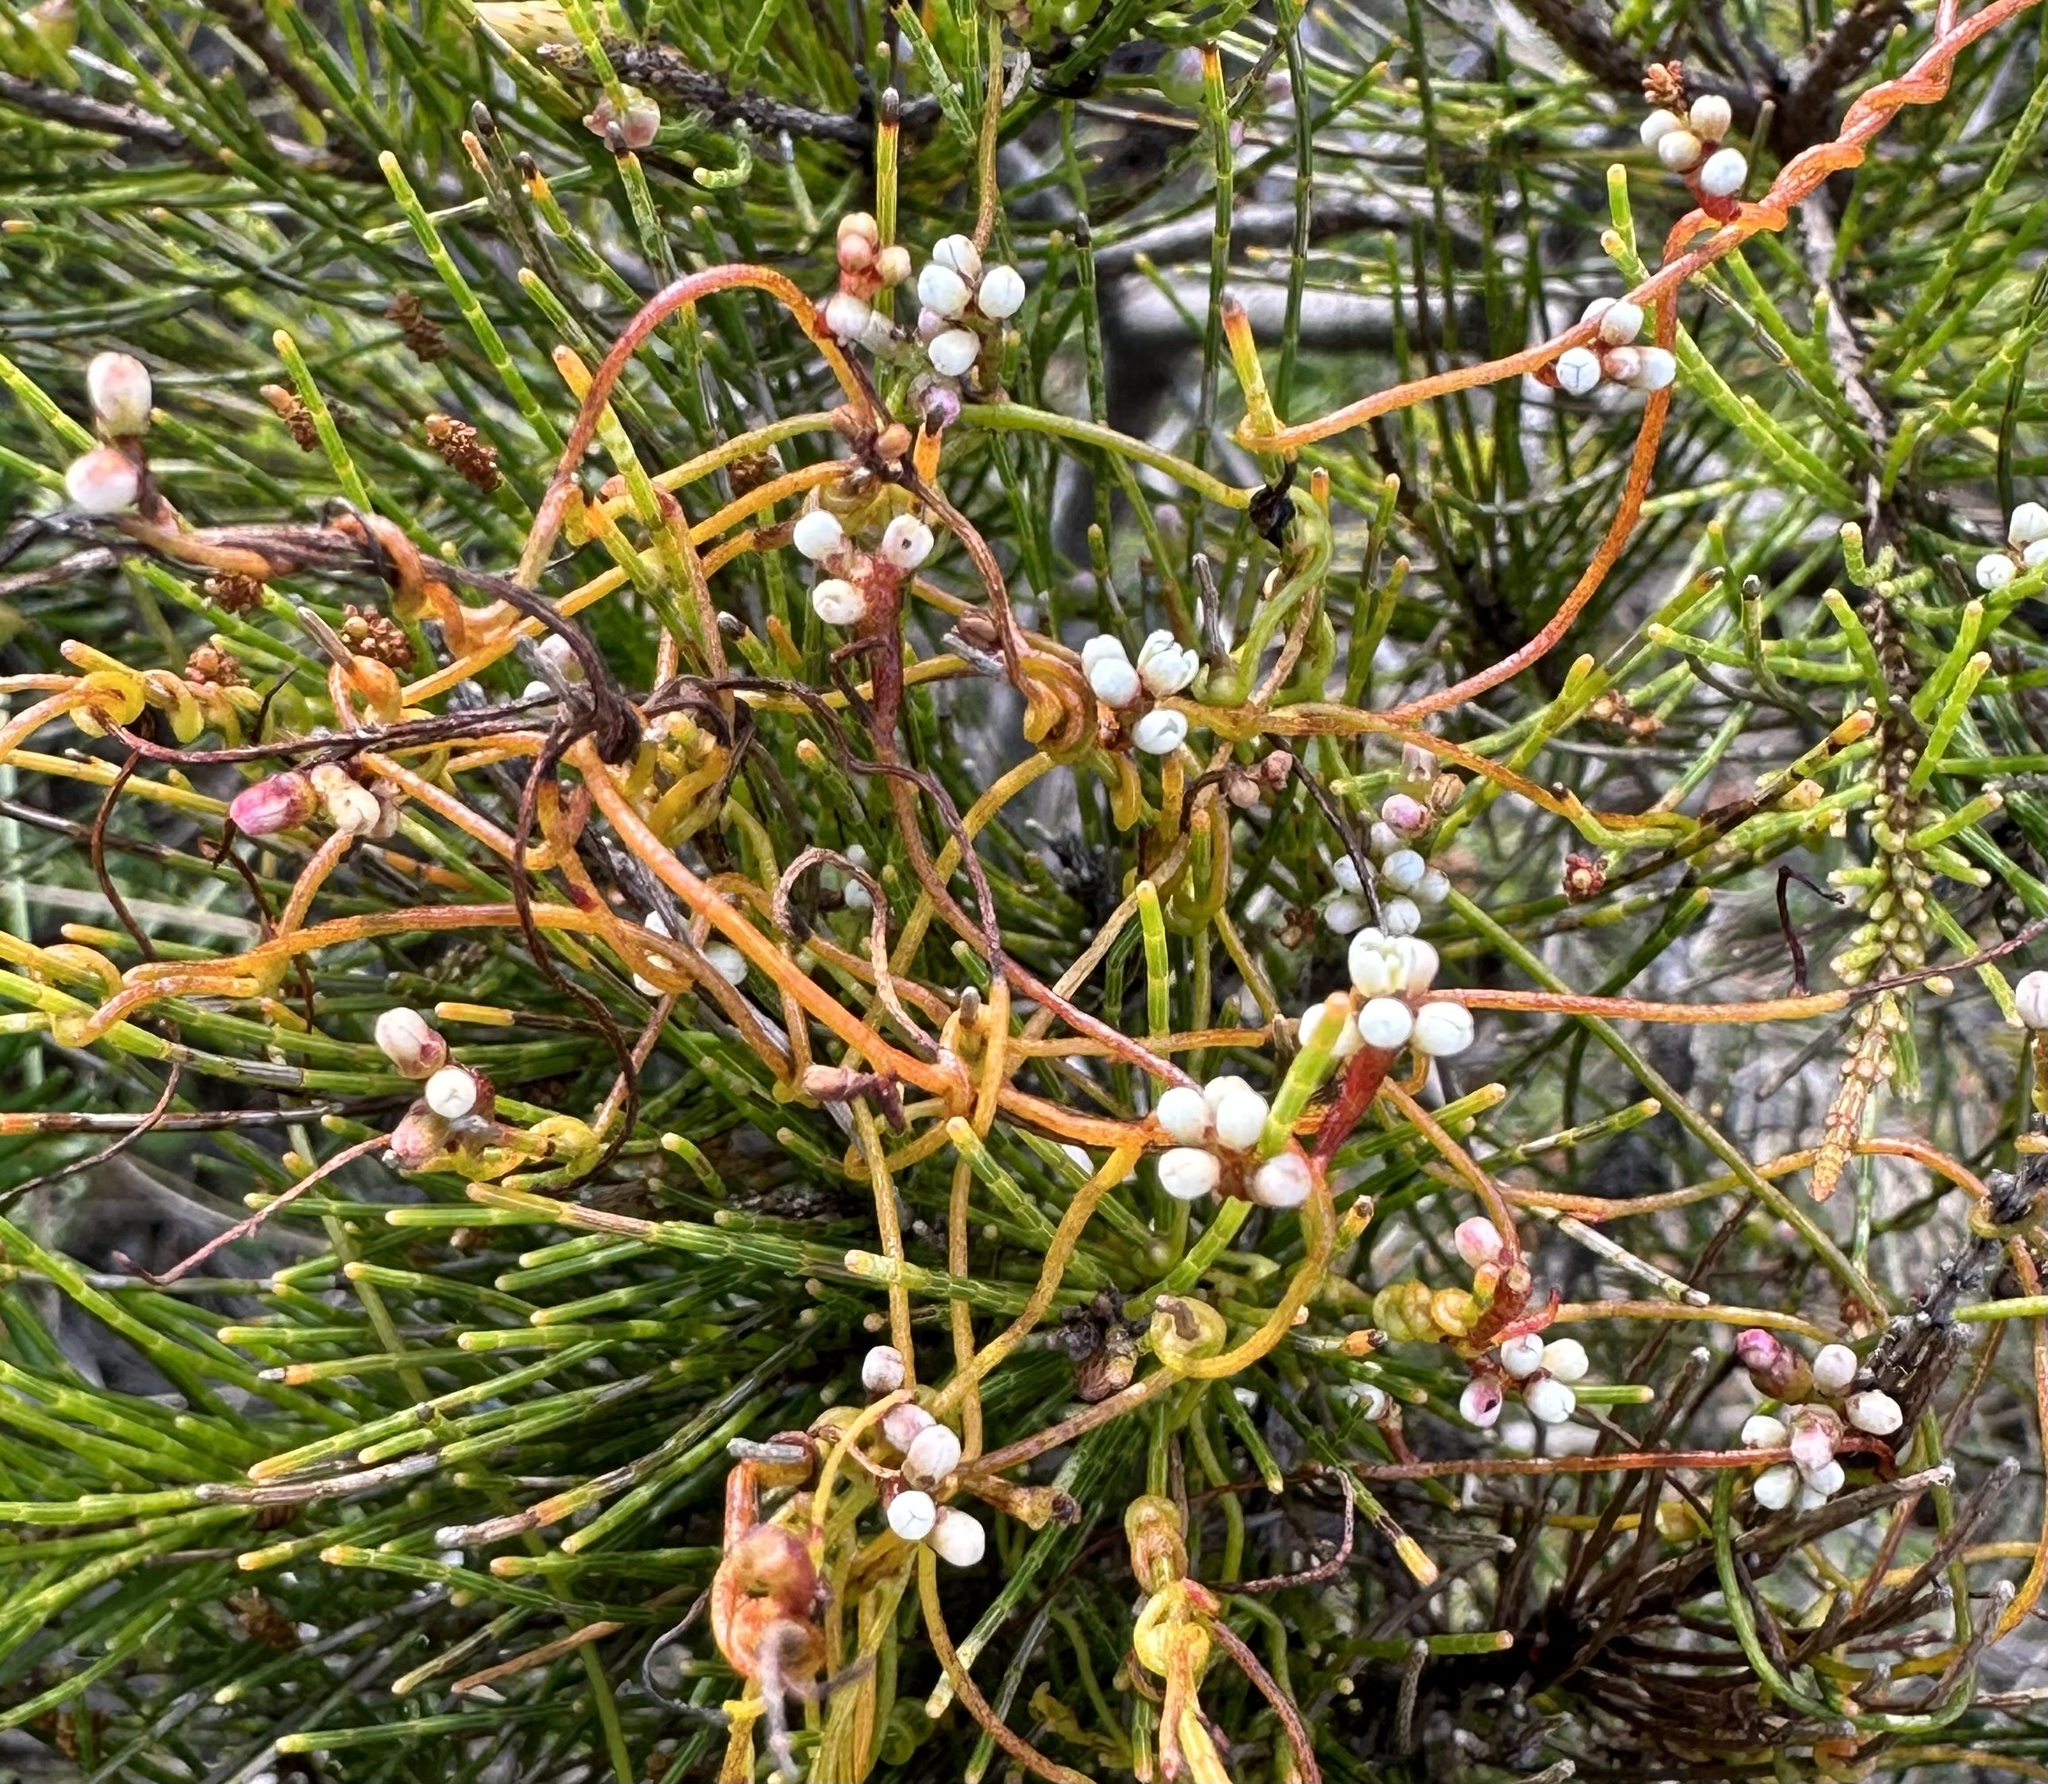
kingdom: Plantae
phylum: Tracheophyta
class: Magnoliopsida
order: Laurales
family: Lauraceae
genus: Cassytha
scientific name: Cassytha glabella
